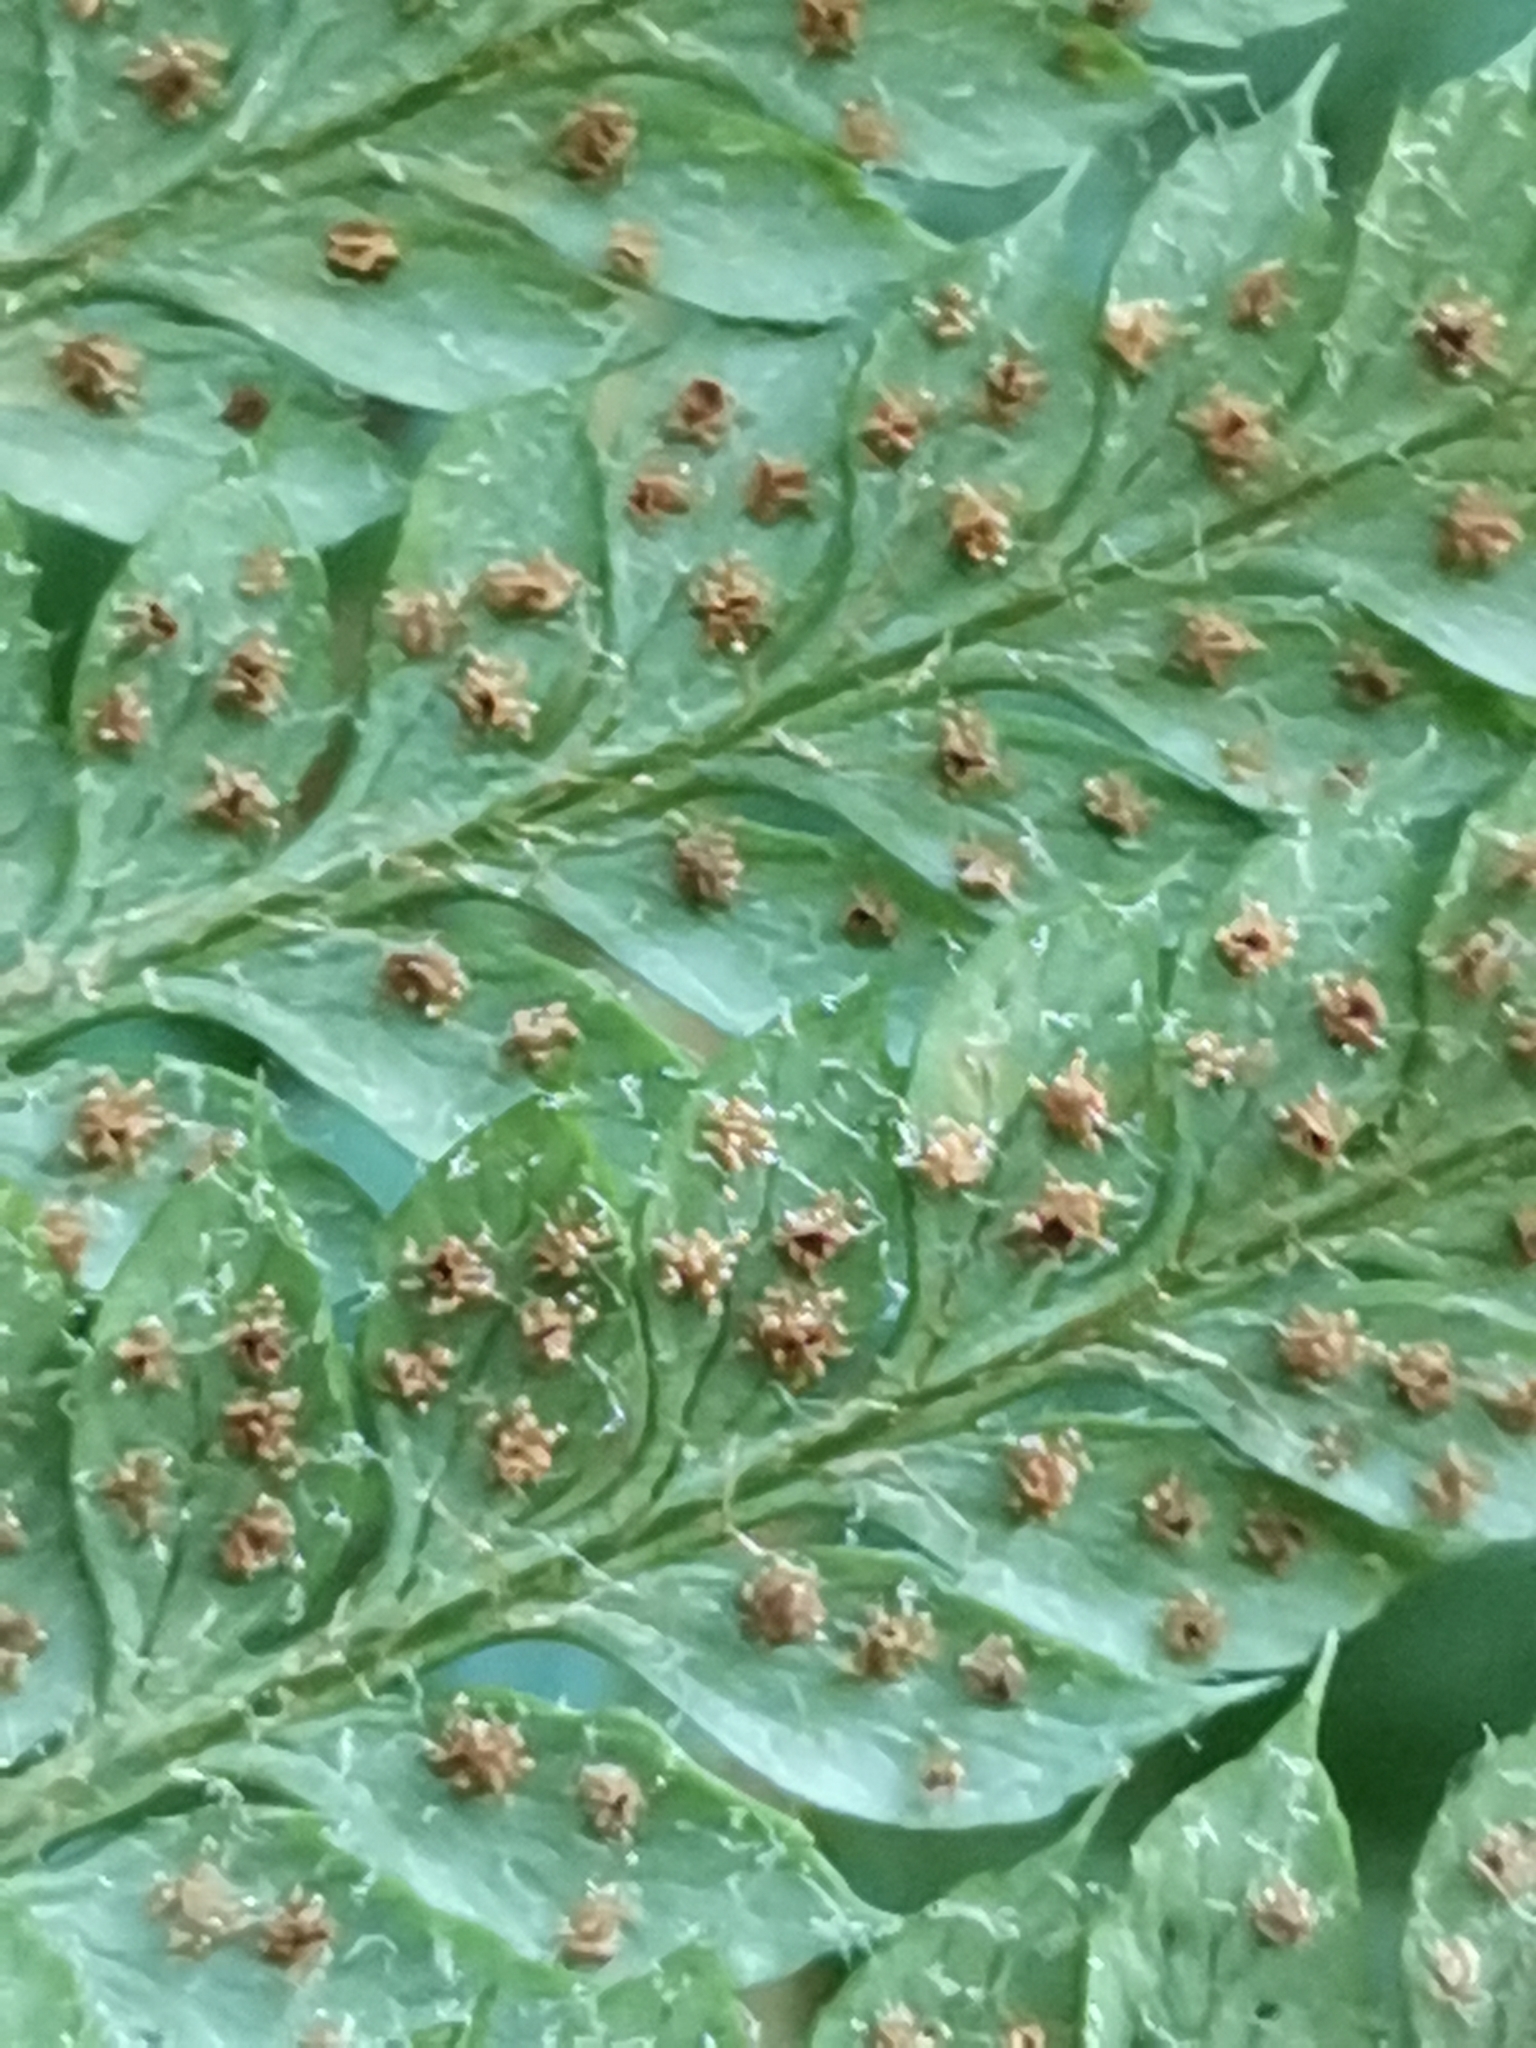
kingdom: Plantae
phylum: Tracheophyta
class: Polypodiopsida
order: Polypodiales
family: Dryopteridaceae
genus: Polystichum
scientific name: Polystichum aculeatum
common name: Hard shield-fern
